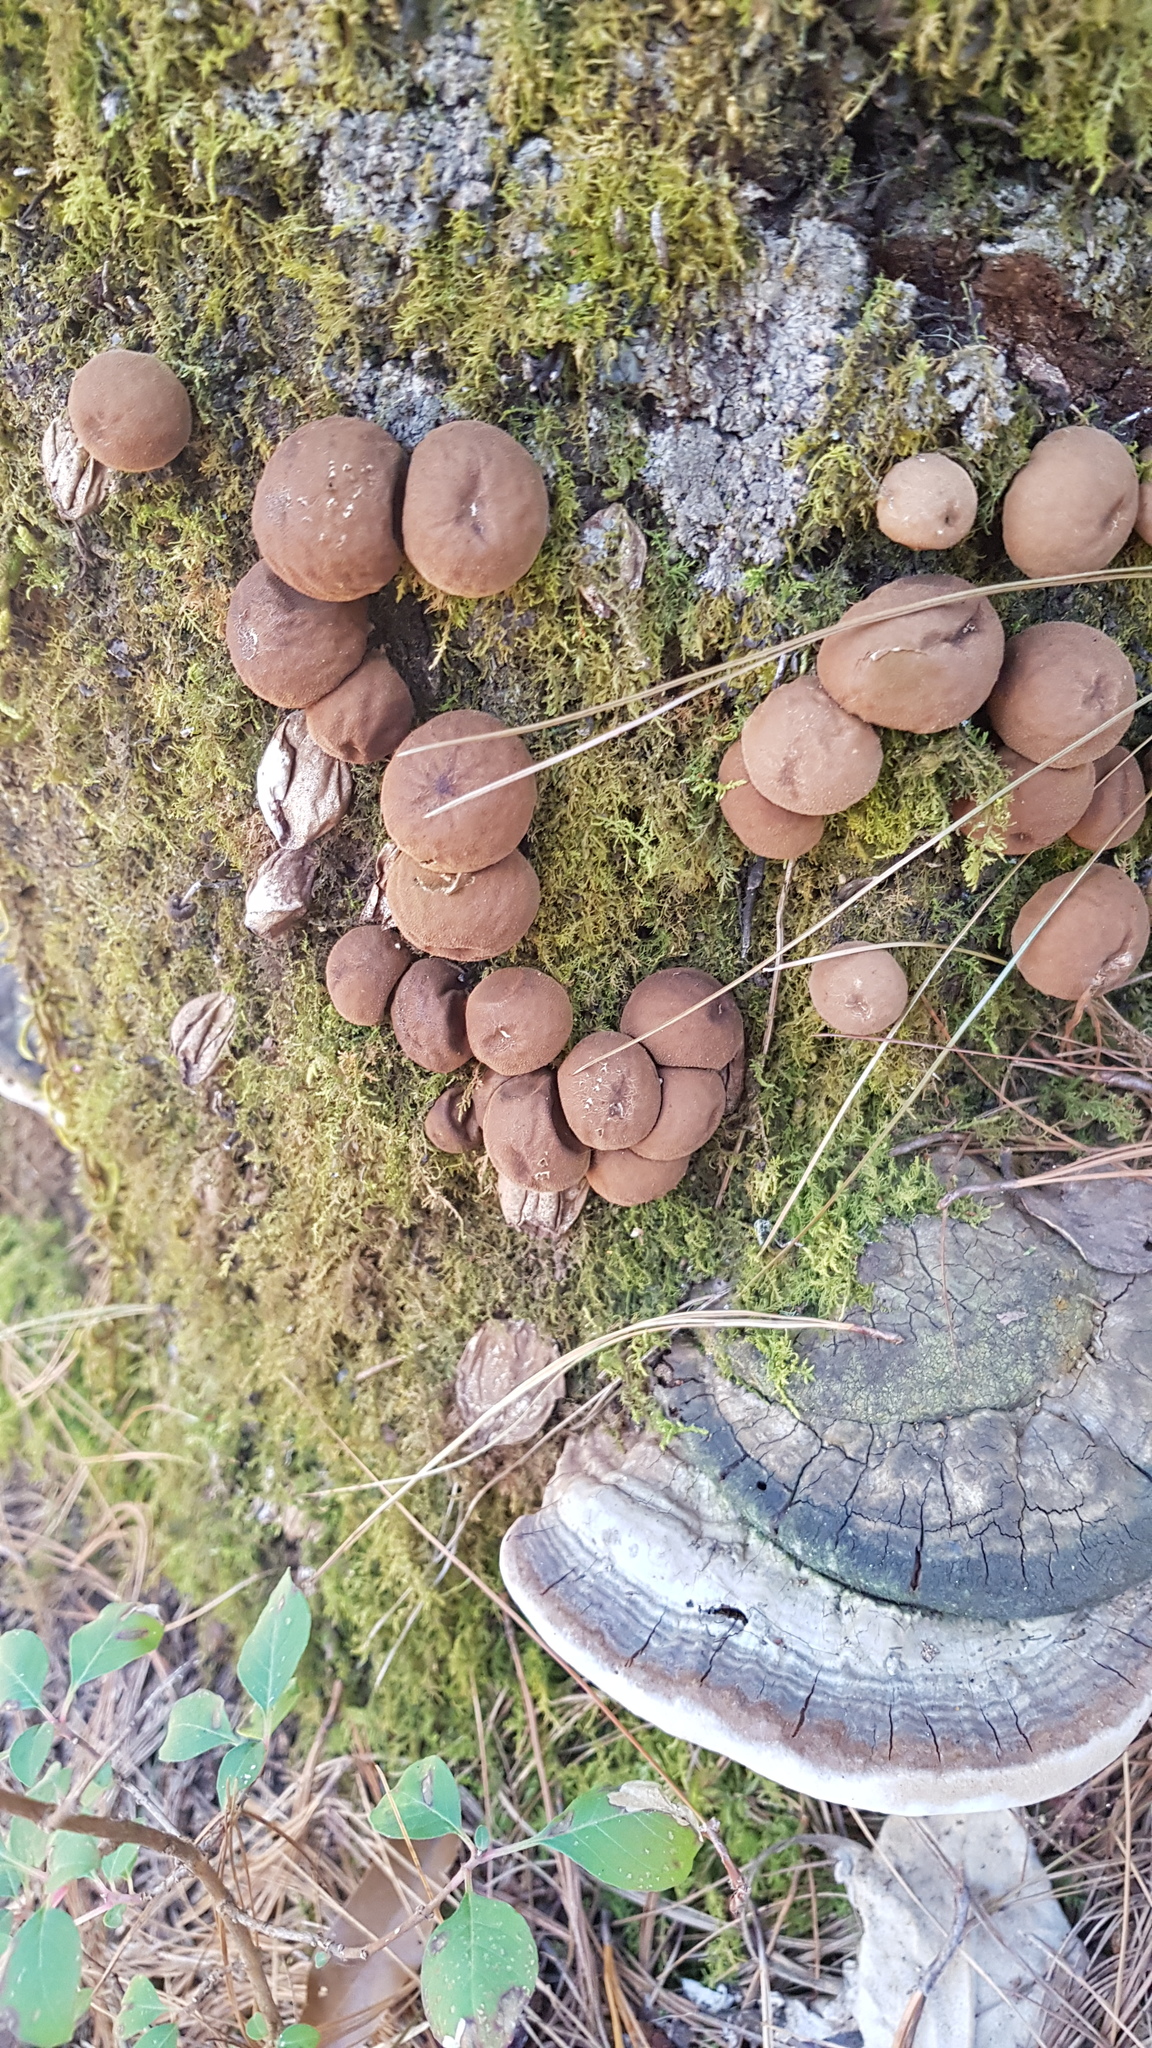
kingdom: Fungi
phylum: Basidiomycota
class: Agaricomycetes
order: Agaricales
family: Lycoperdaceae
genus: Apioperdon
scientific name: Apioperdon pyriforme
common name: Pear-shaped puffball
